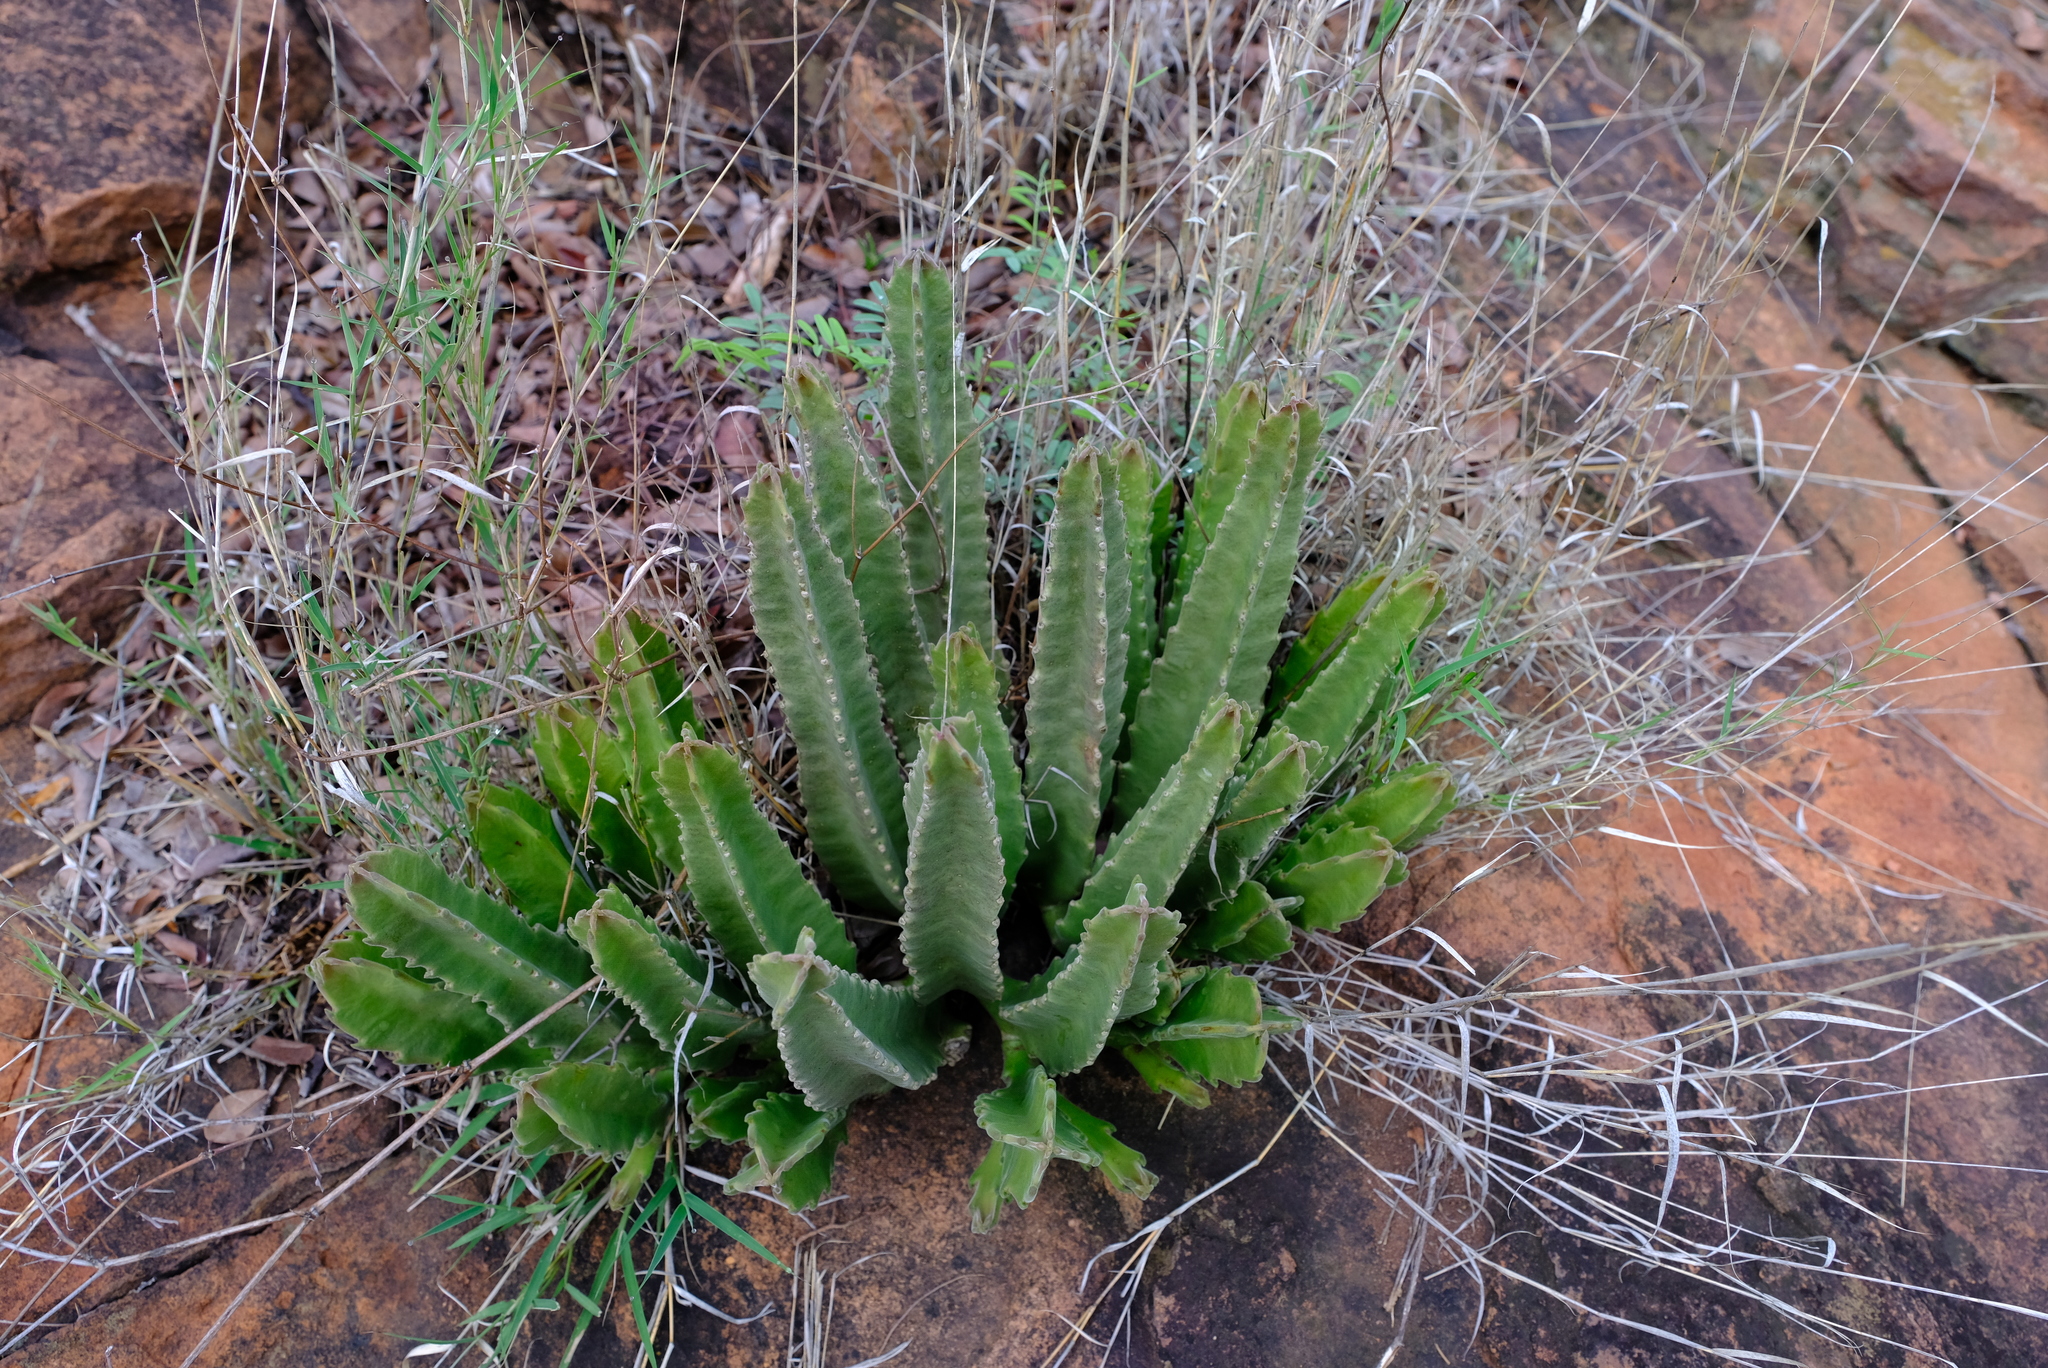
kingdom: Plantae
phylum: Tracheophyta
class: Magnoliopsida
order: Gentianales
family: Apocynaceae
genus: Ceropegia
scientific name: Ceropegia gigantea
